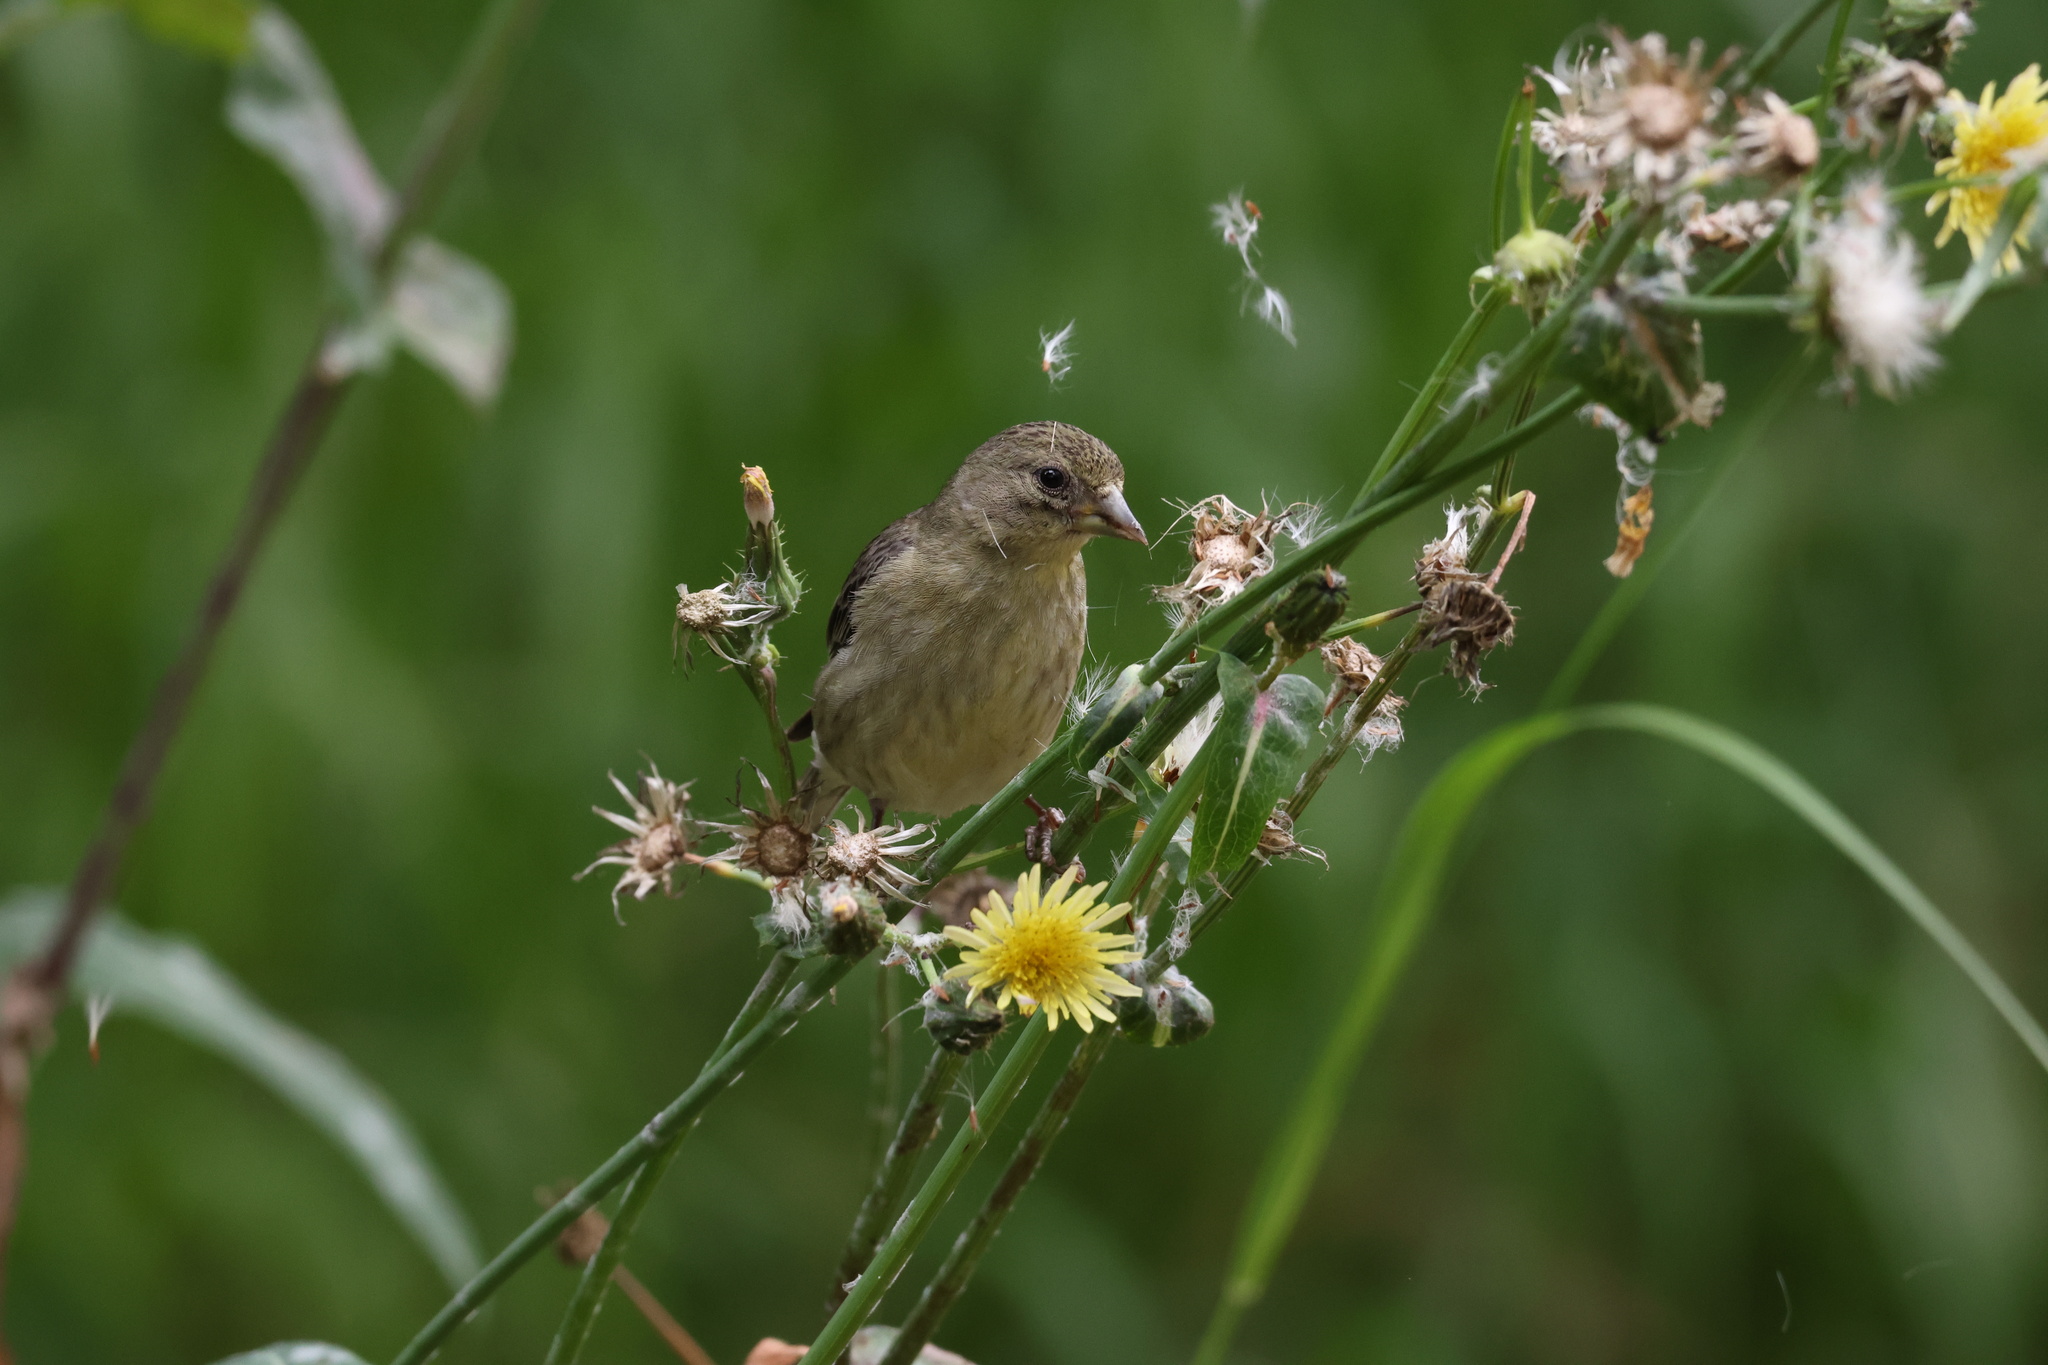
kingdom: Animalia
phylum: Chordata
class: Aves
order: Passeriformes
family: Fringillidae
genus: Spinus
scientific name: Spinus psaltria
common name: Lesser goldfinch
